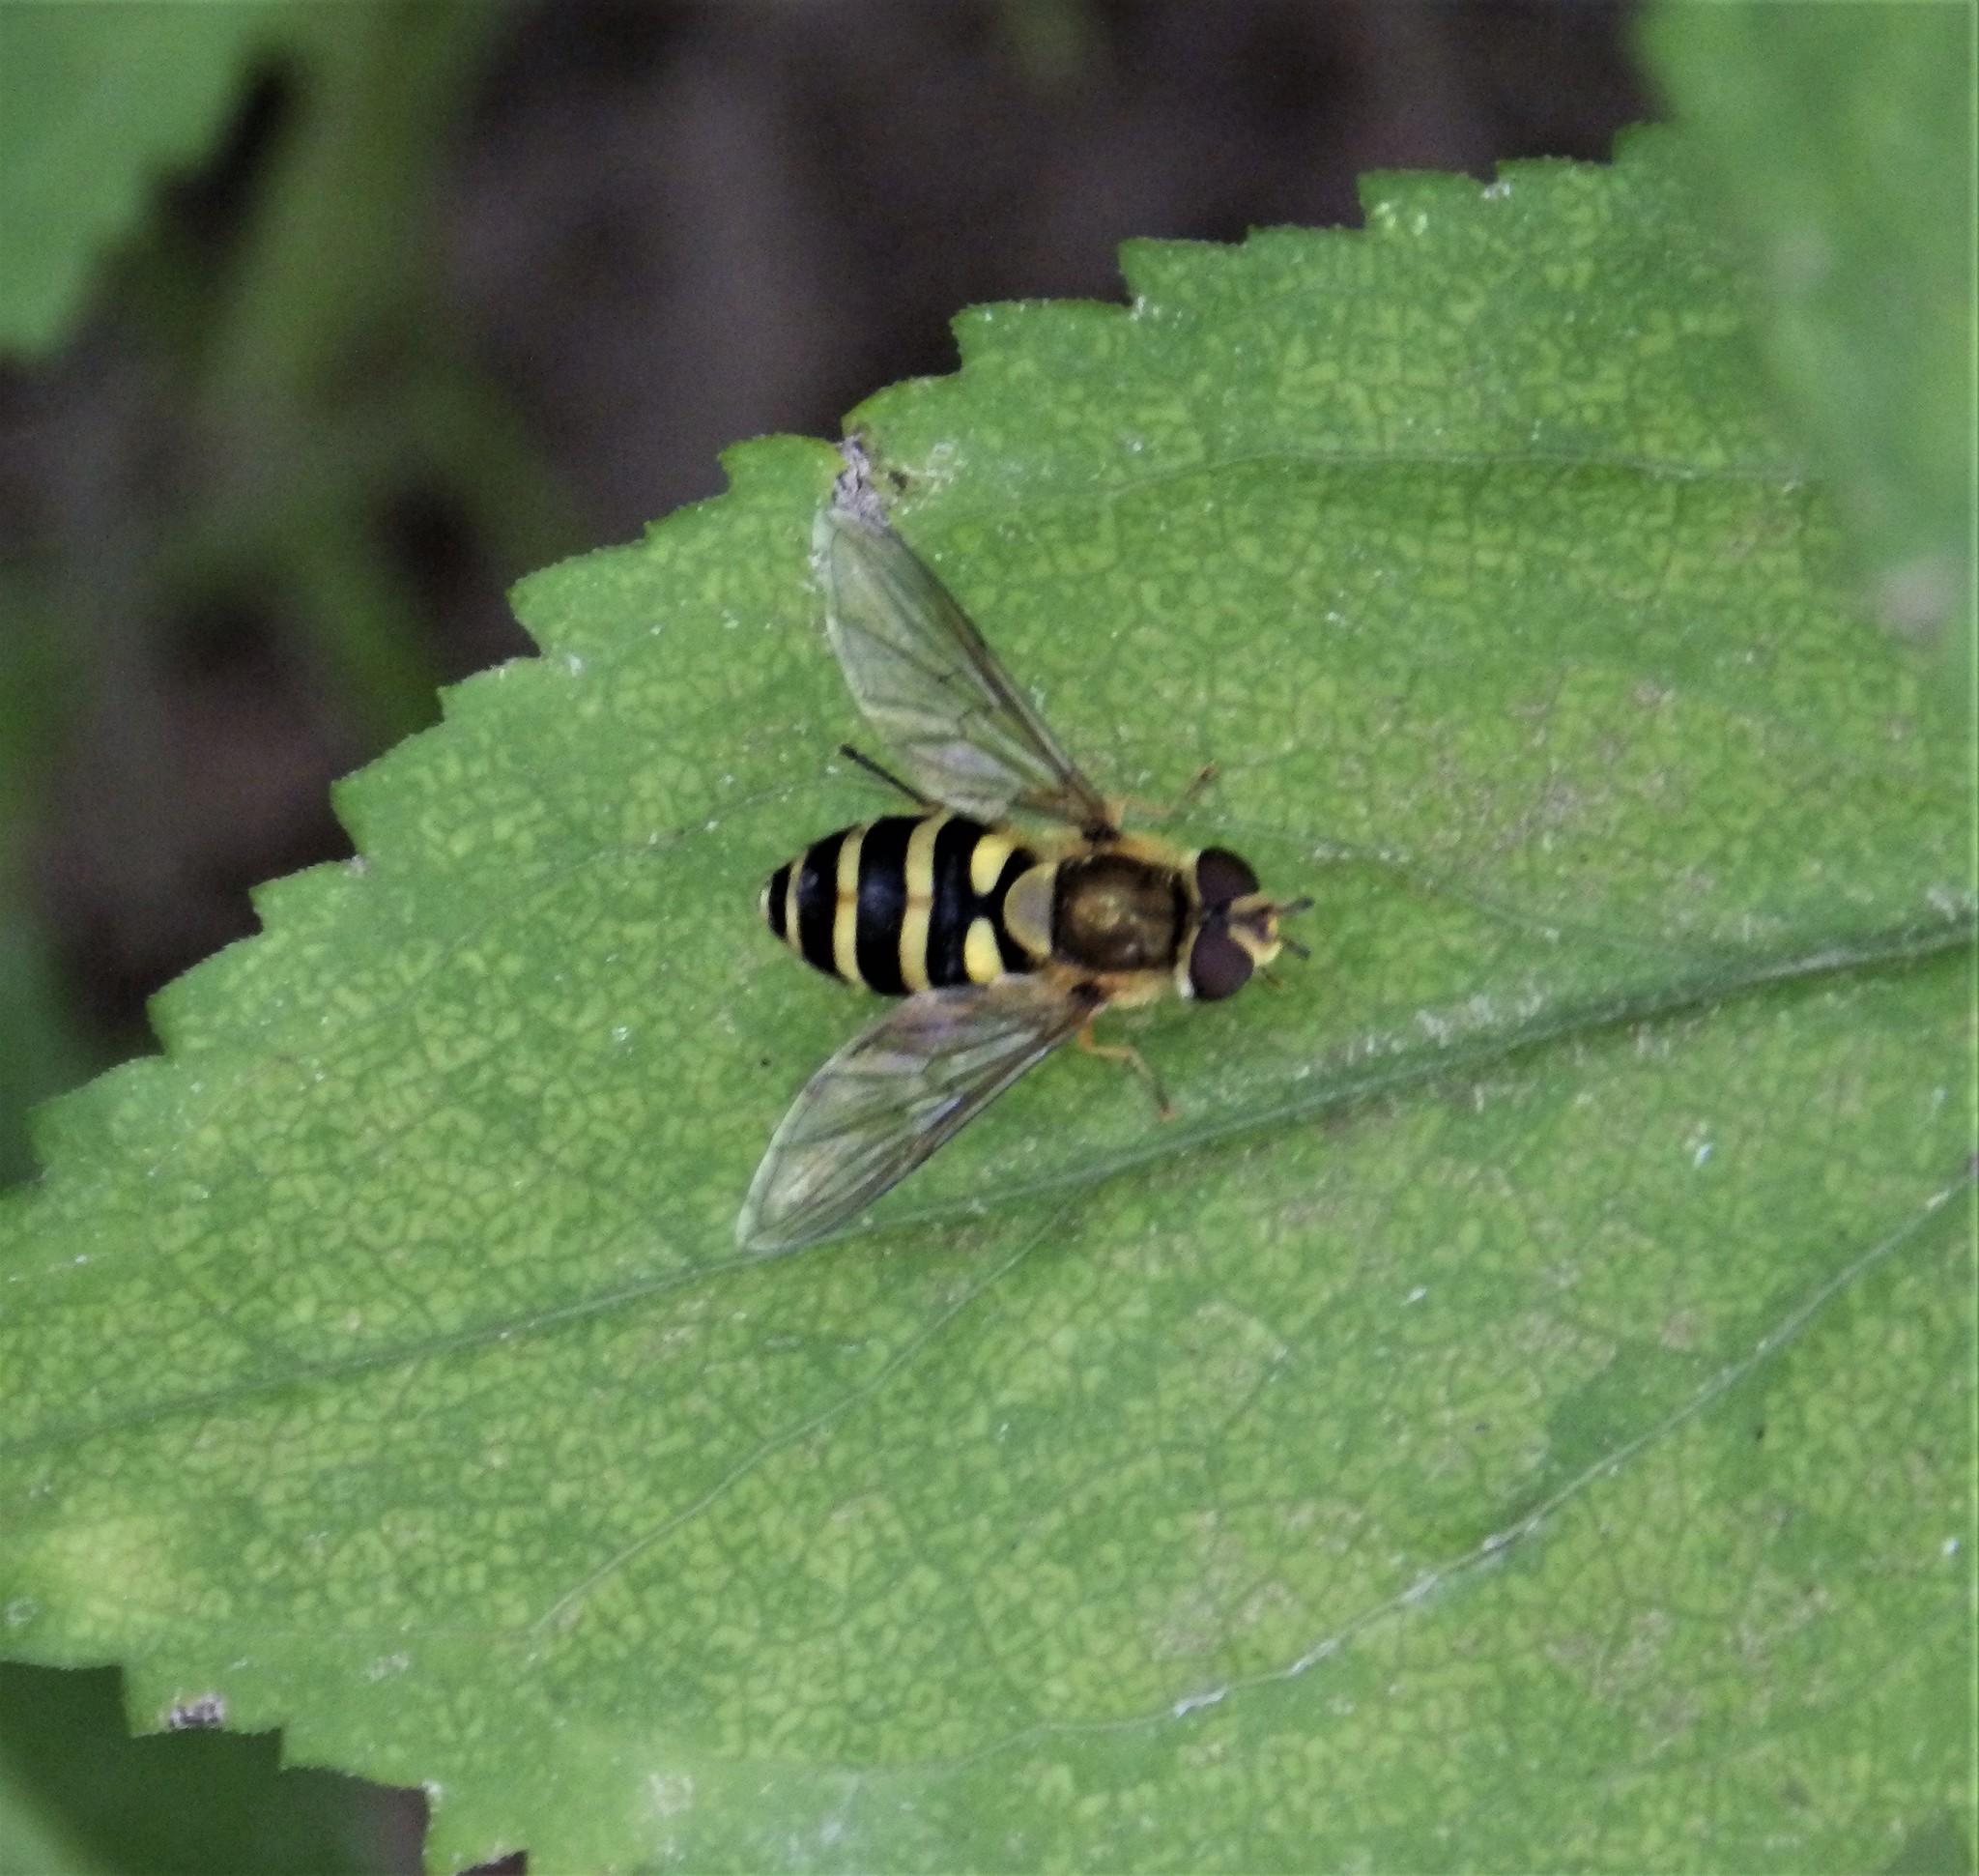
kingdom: Animalia
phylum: Arthropoda
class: Insecta
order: Diptera
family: Syrphidae
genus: Syrphus
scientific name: Syrphus
